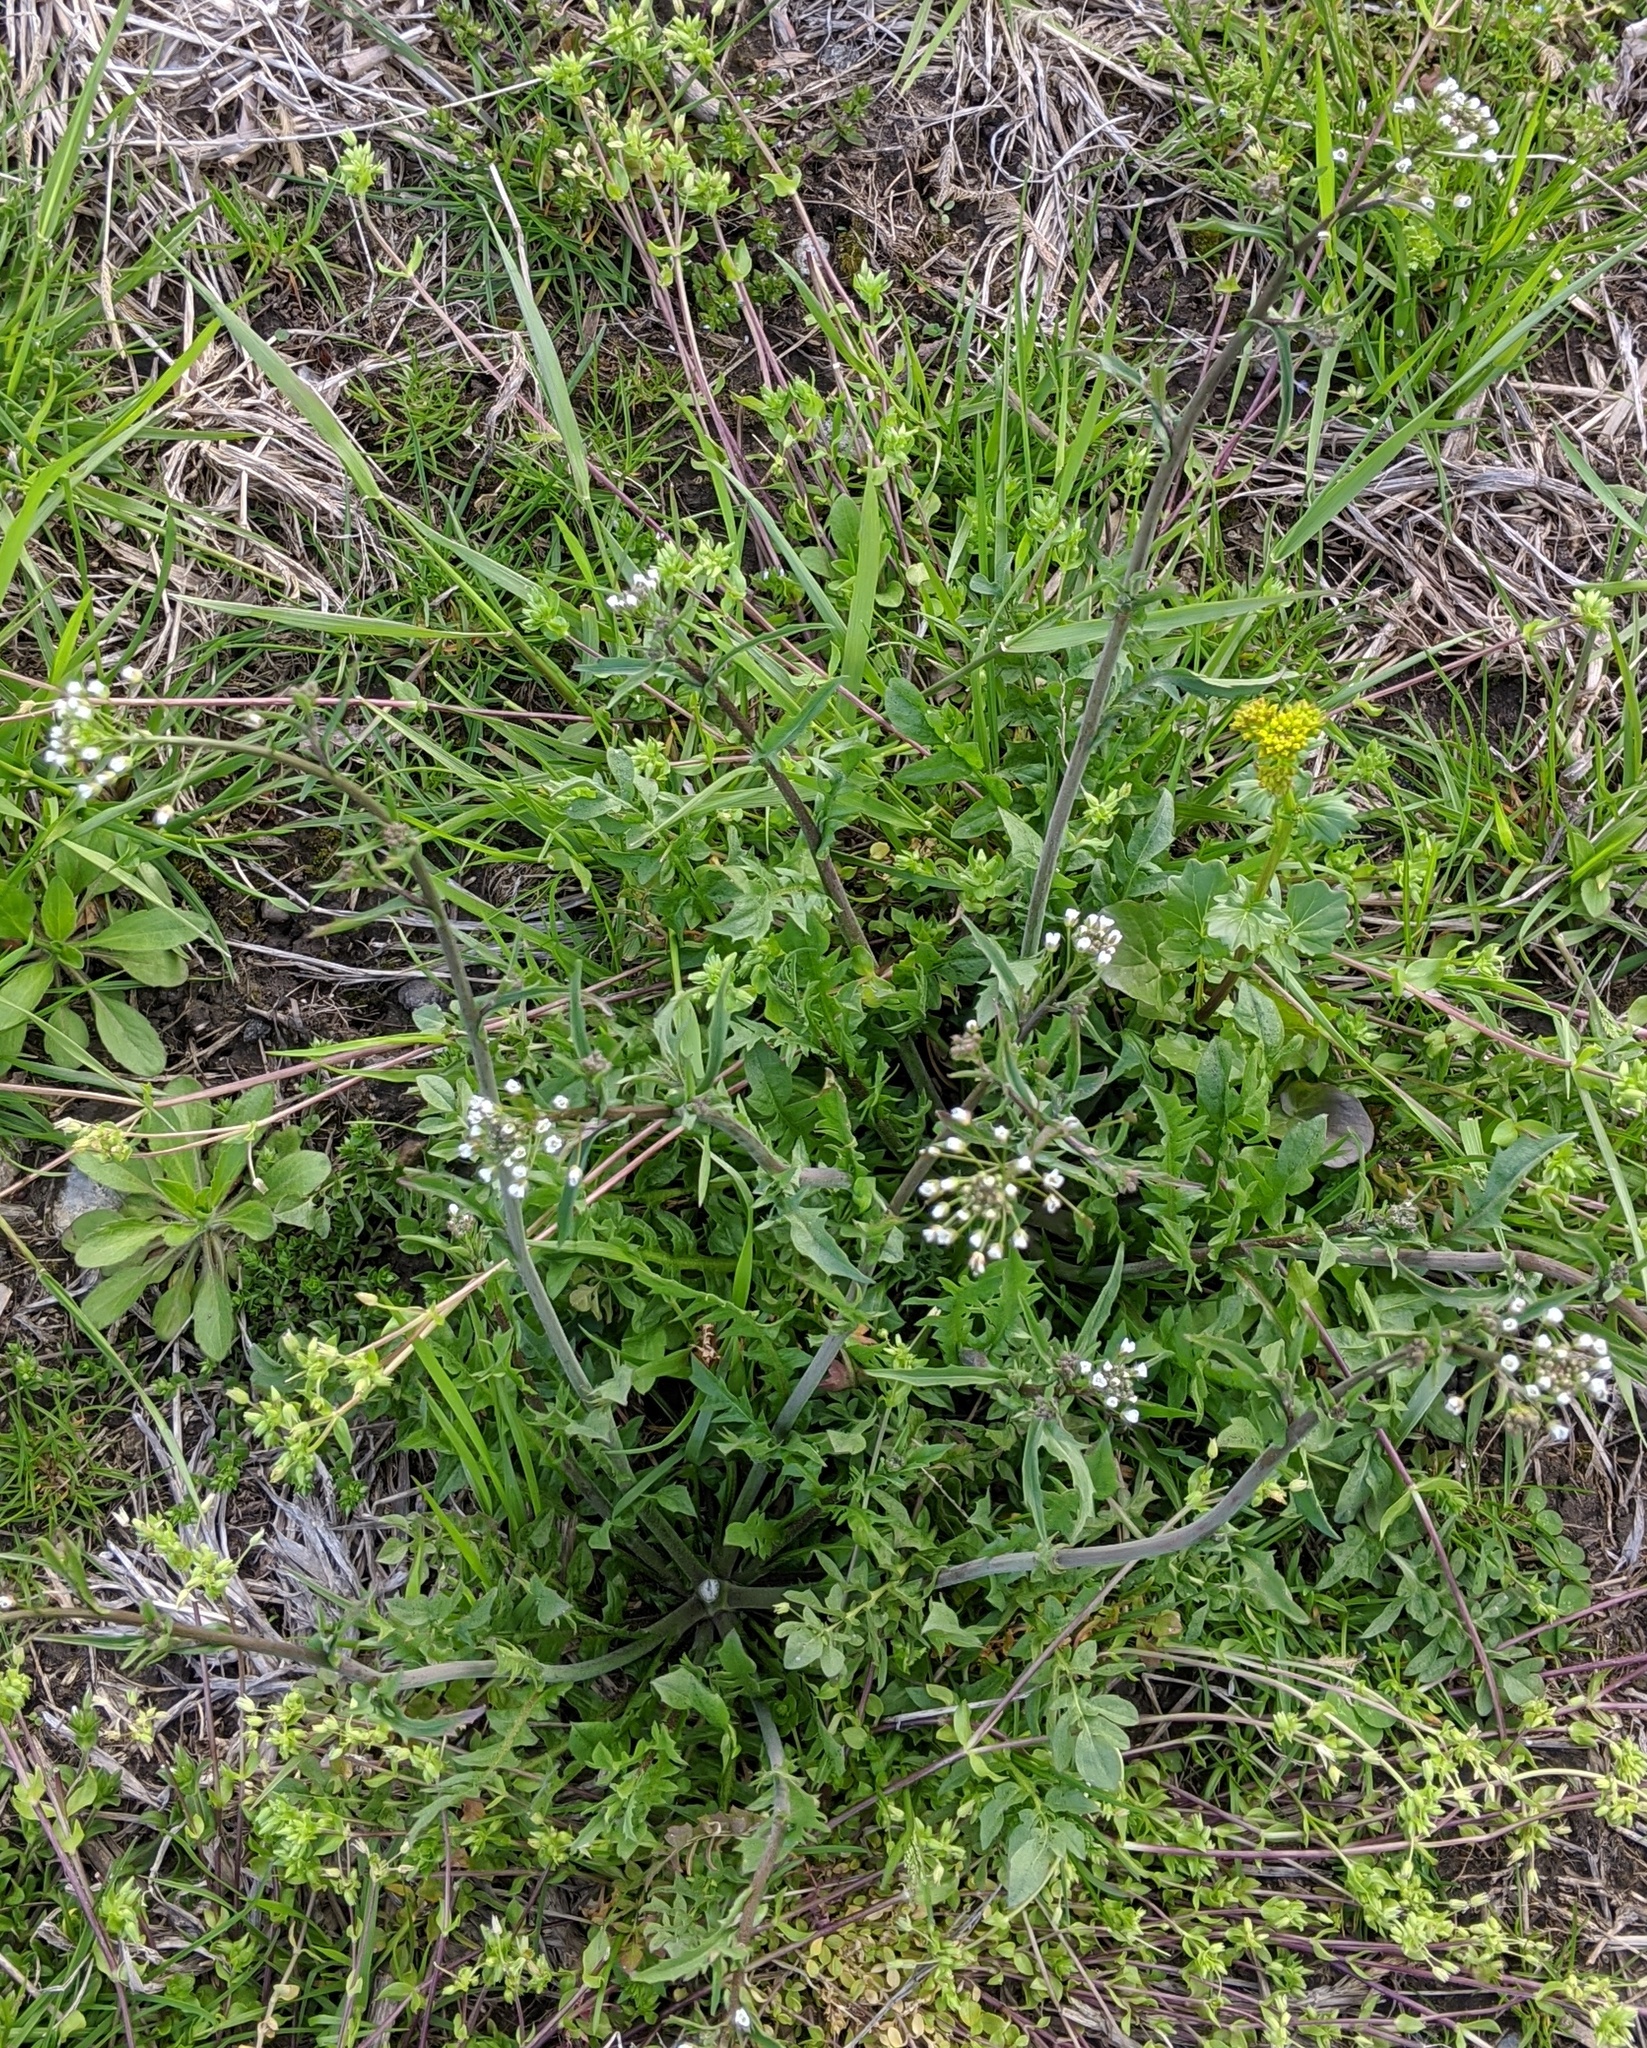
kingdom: Plantae
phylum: Tracheophyta
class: Magnoliopsida
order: Brassicales
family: Brassicaceae
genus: Capsella
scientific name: Capsella bursa-pastoris
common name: Shepherd's purse
